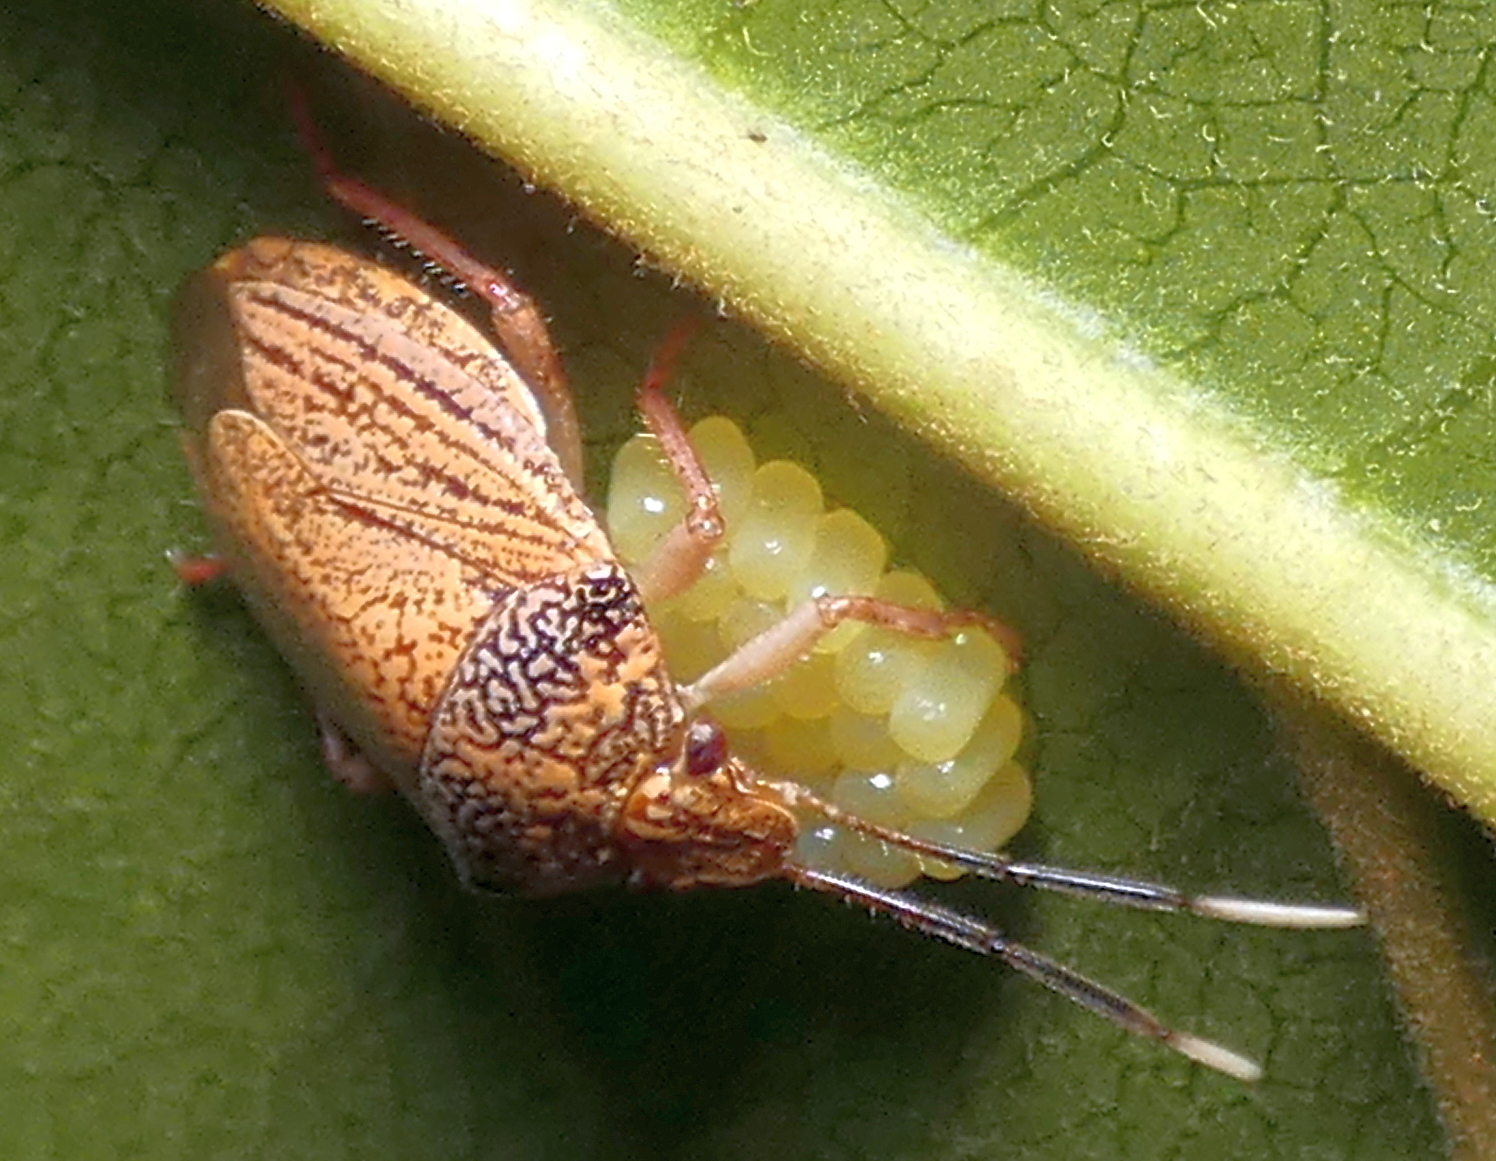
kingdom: Animalia
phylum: Arthropoda
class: Insecta
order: Hemiptera
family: Pentatomidae
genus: Antiteuchus
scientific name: Antiteuchus sepulcralis
